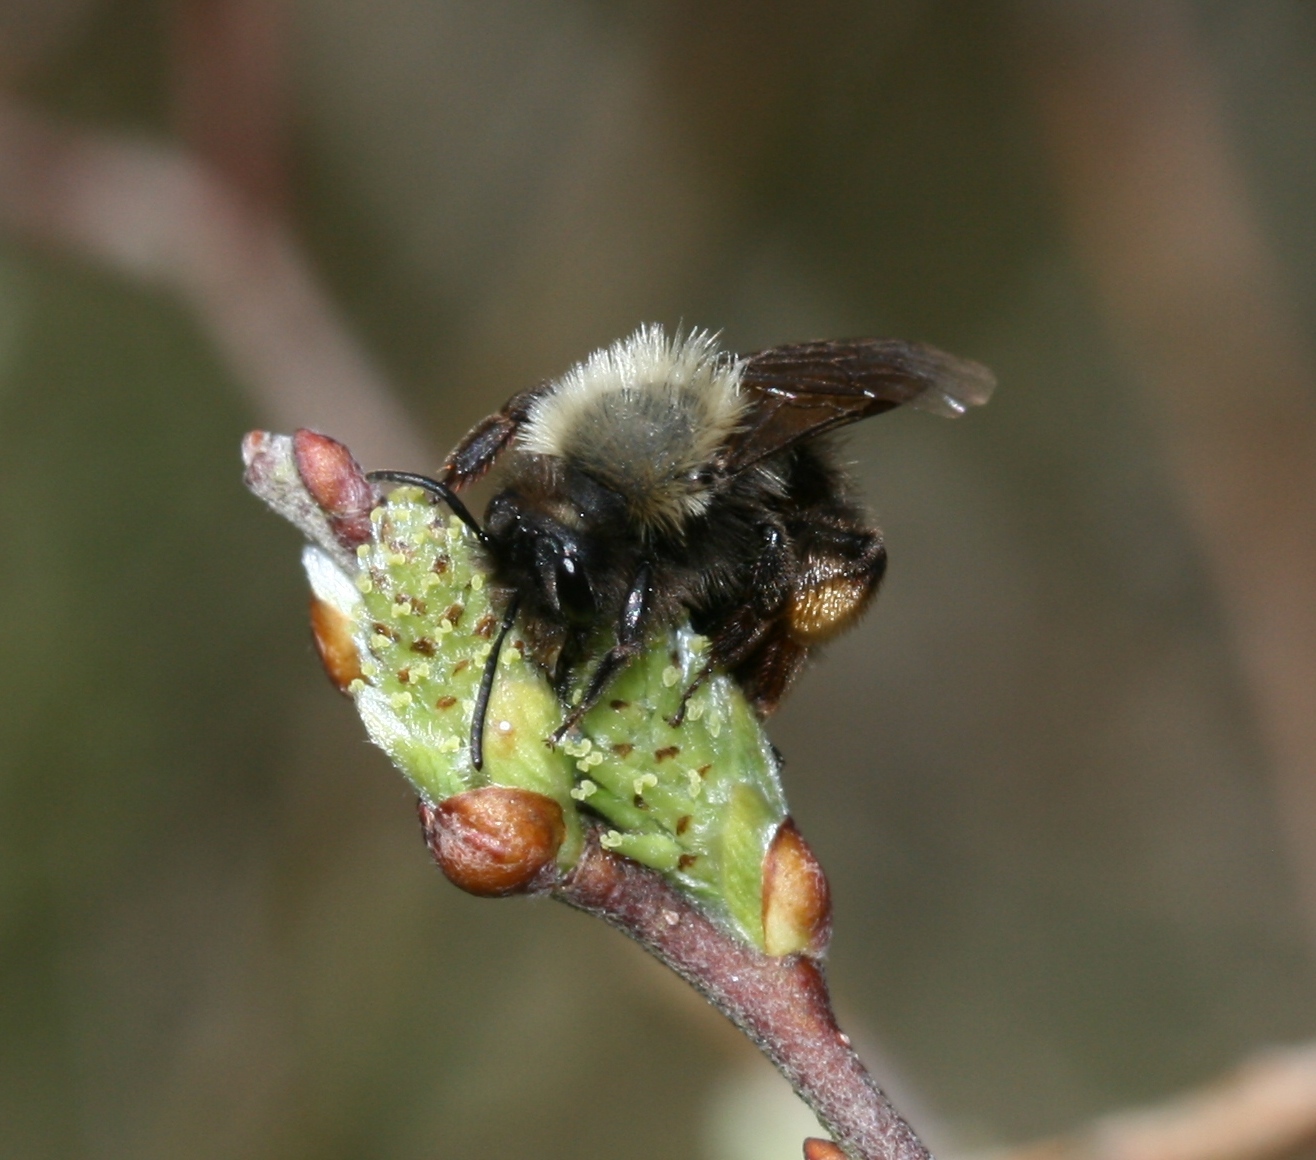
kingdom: Animalia
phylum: Arthropoda
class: Insecta
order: Hymenoptera
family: Andrenidae
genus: Andrena
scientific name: Andrena clarkella
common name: Clarke's mining bee
